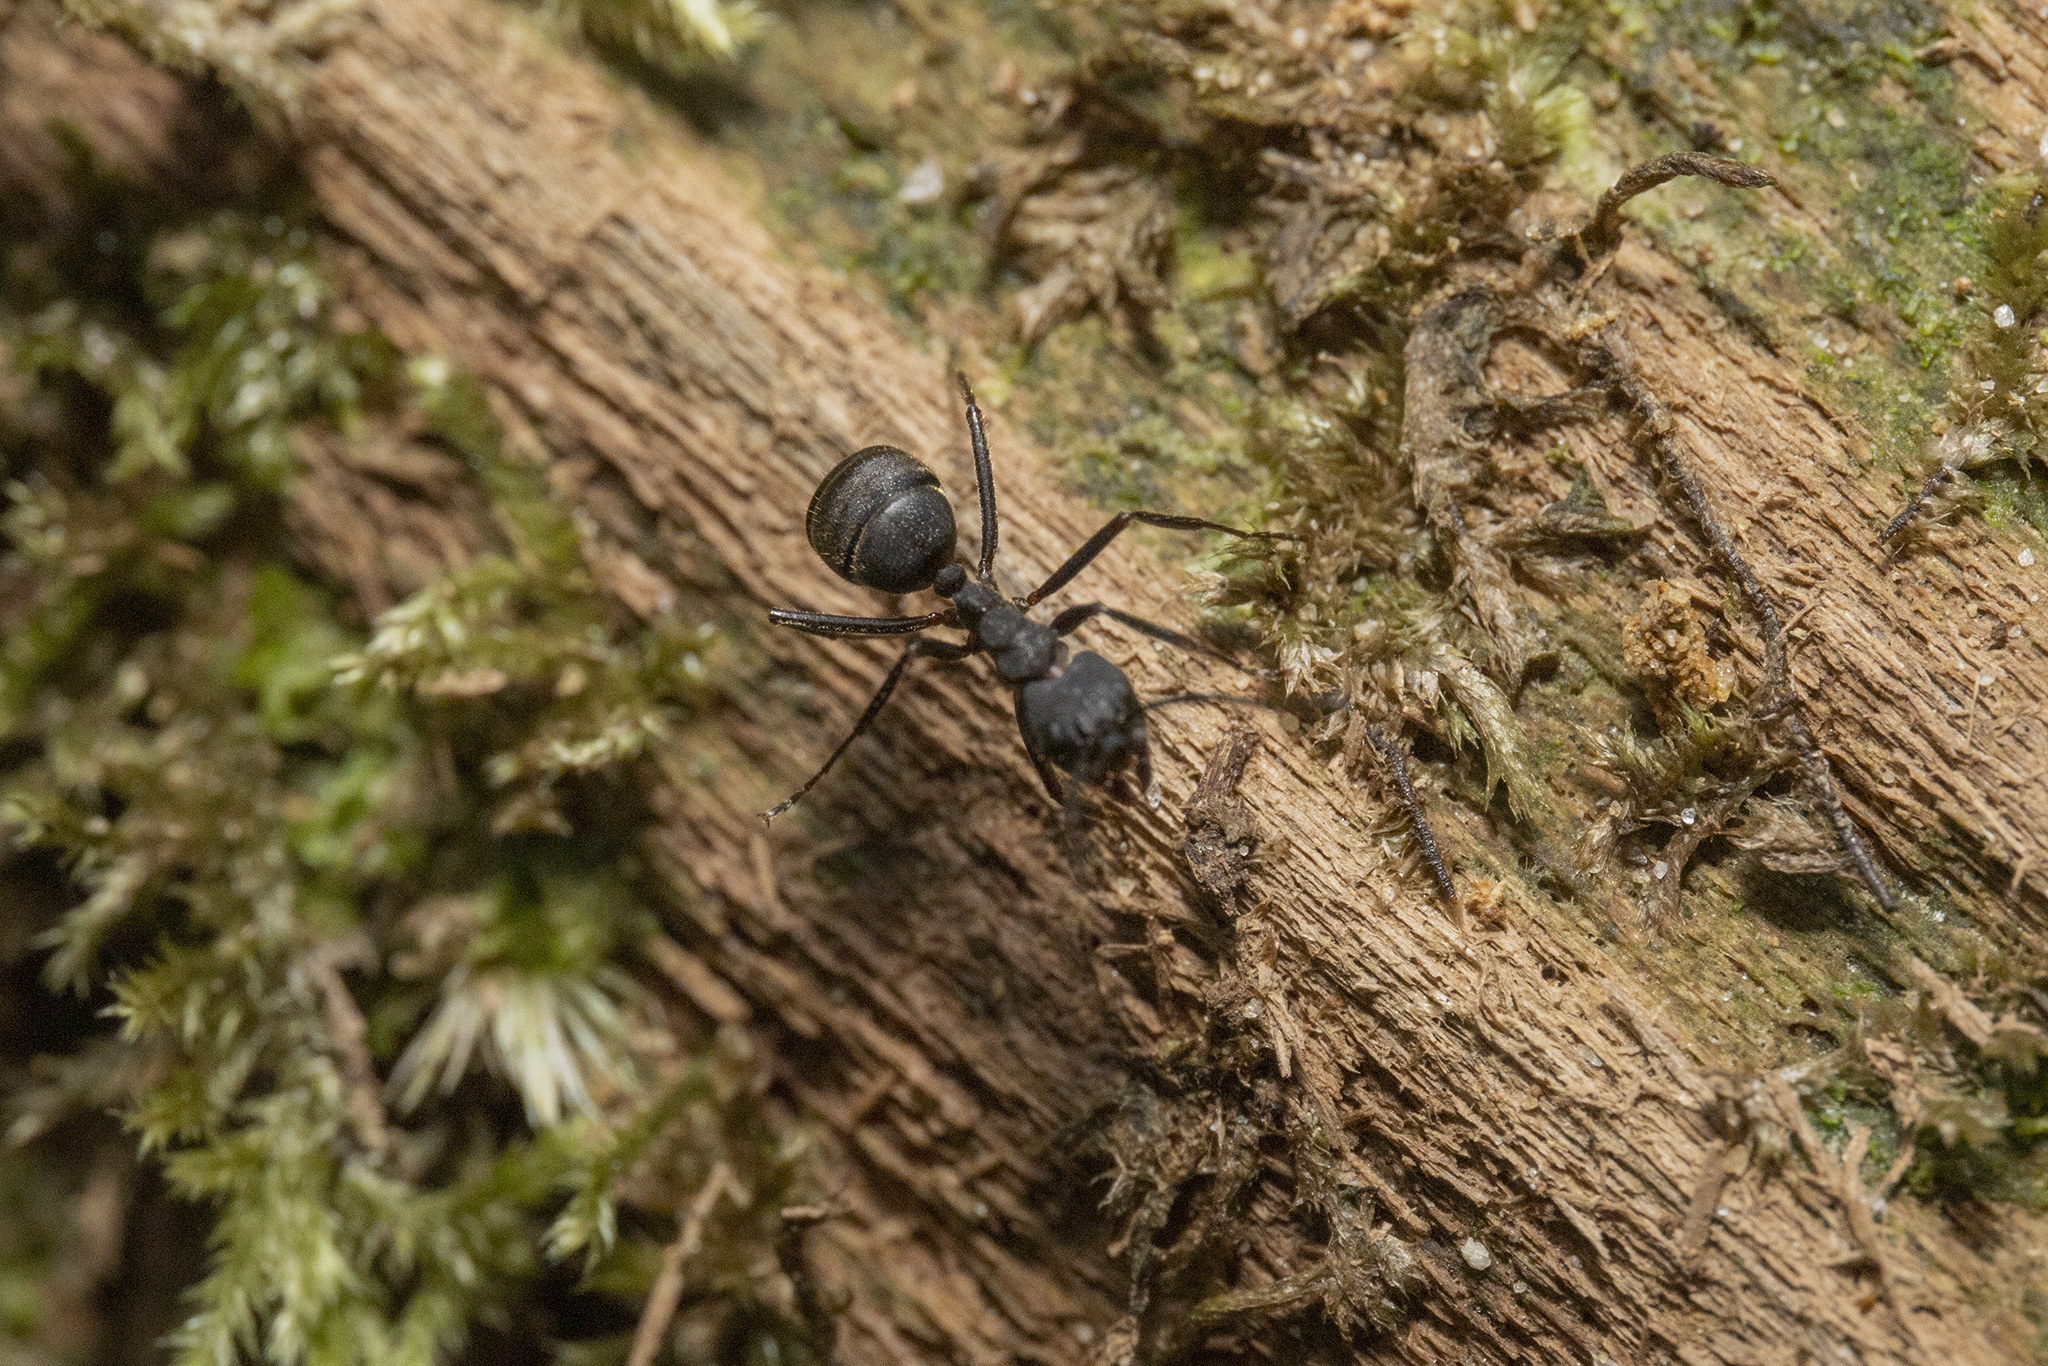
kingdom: Animalia
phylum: Arthropoda
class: Insecta
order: Hymenoptera
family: Formicidae
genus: Dolichoderus
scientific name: Dolichoderus lugens
